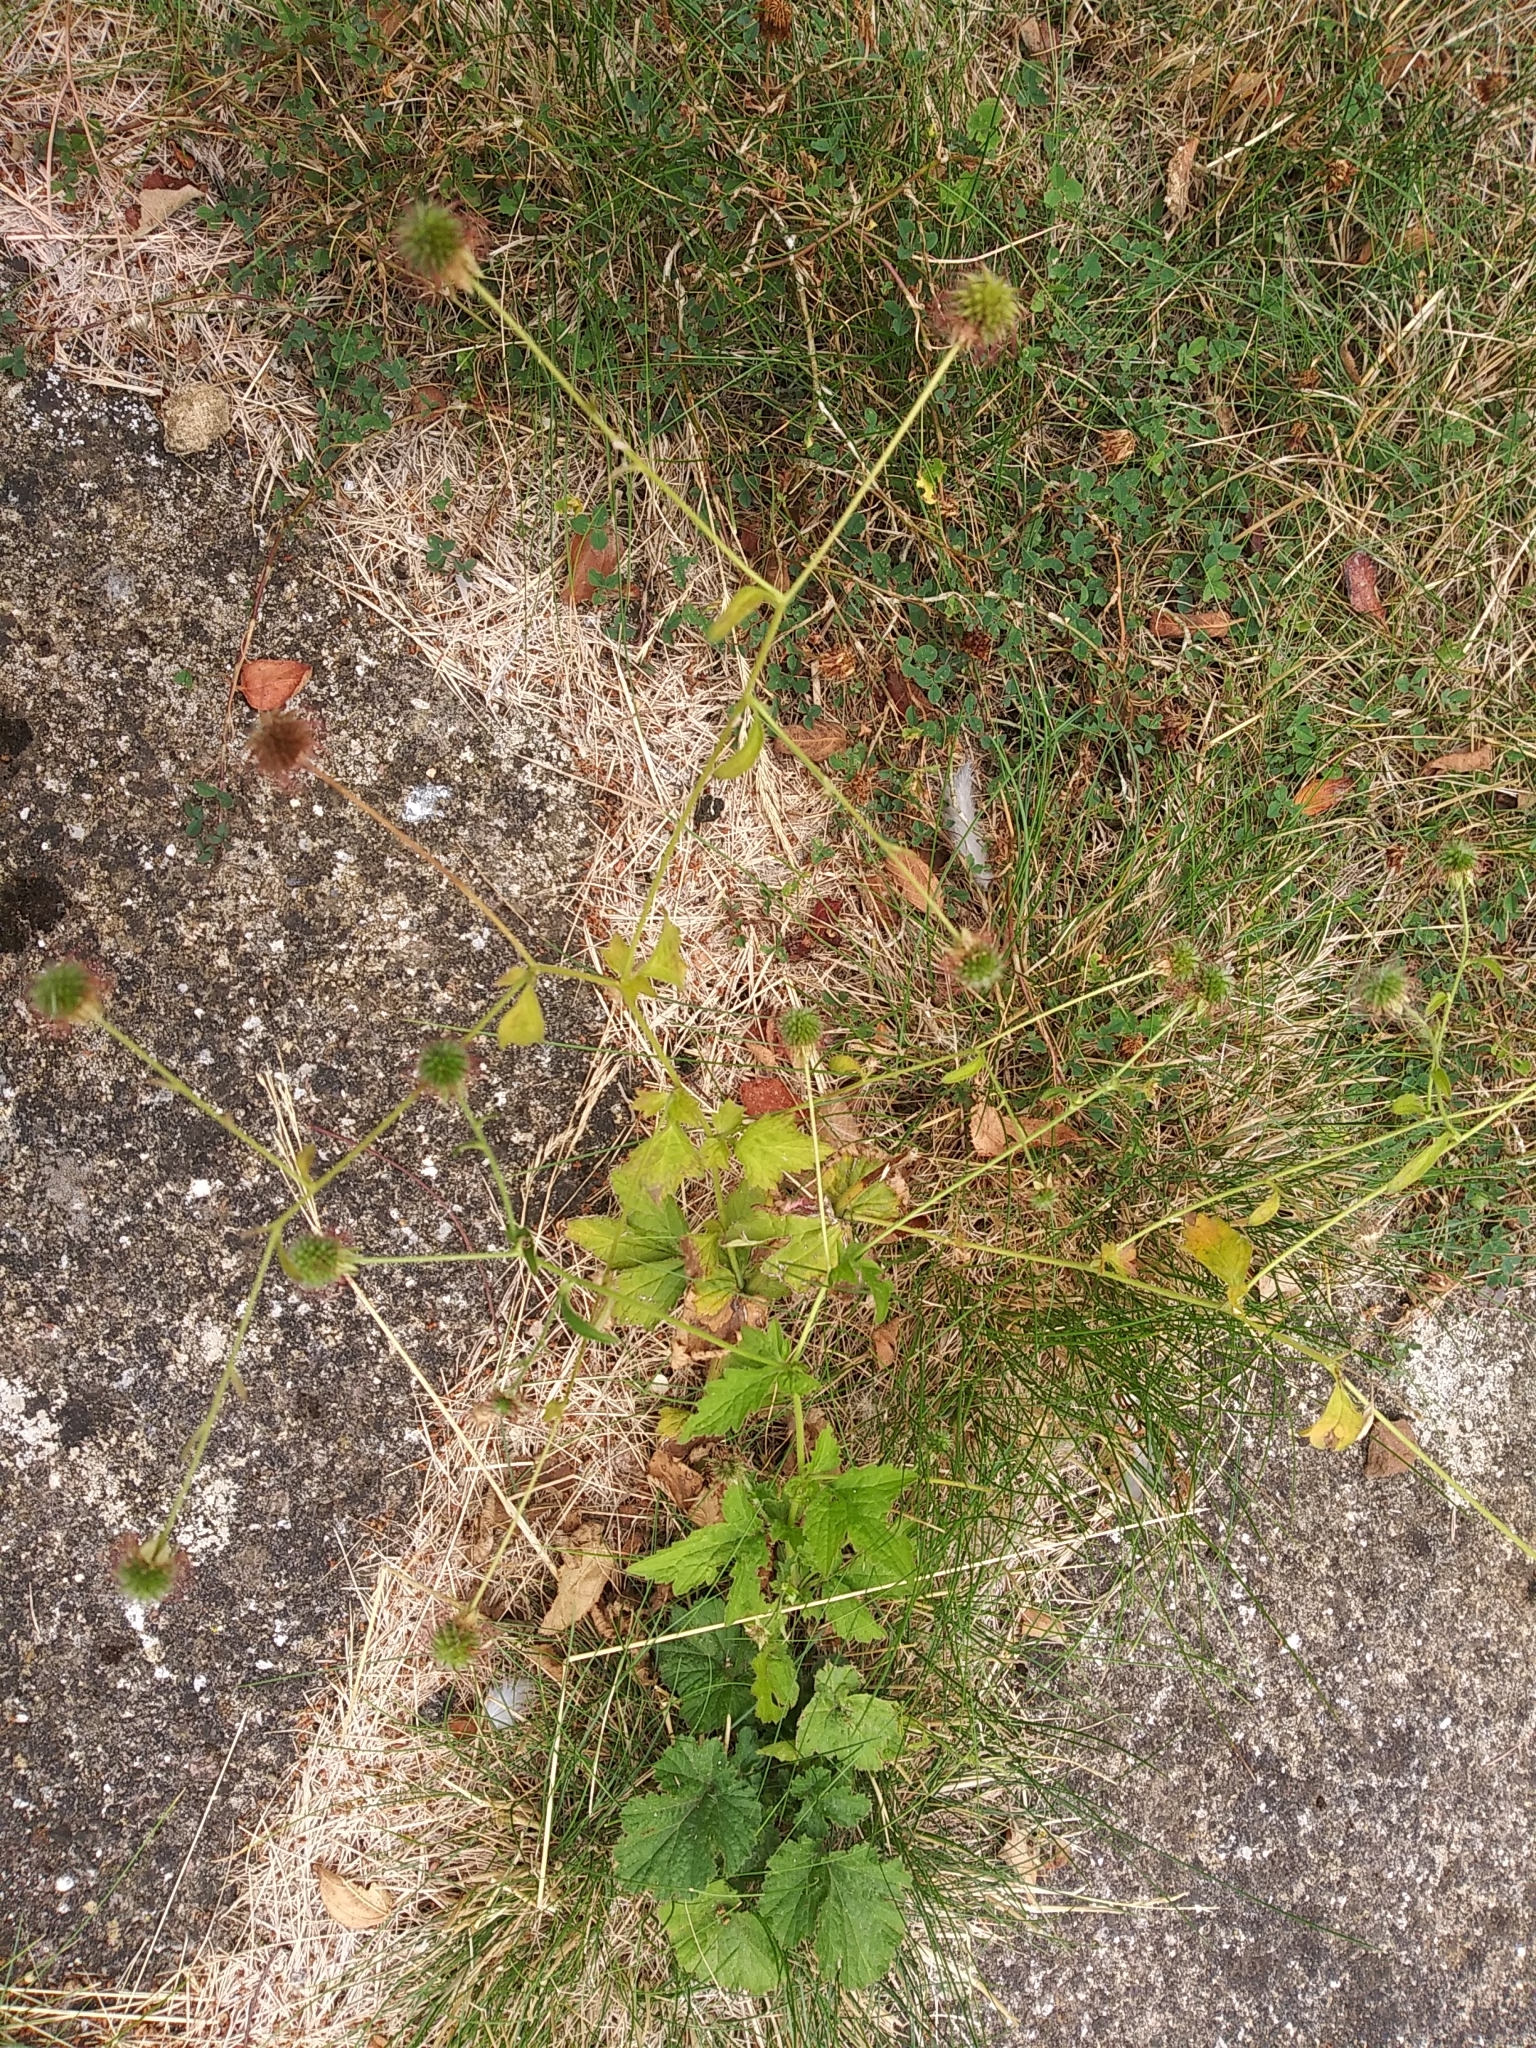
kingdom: Plantae
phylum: Tracheophyta
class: Magnoliopsida
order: Rosales
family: Rosaceae
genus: Geum
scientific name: Geum urbanum
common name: Wood avens
